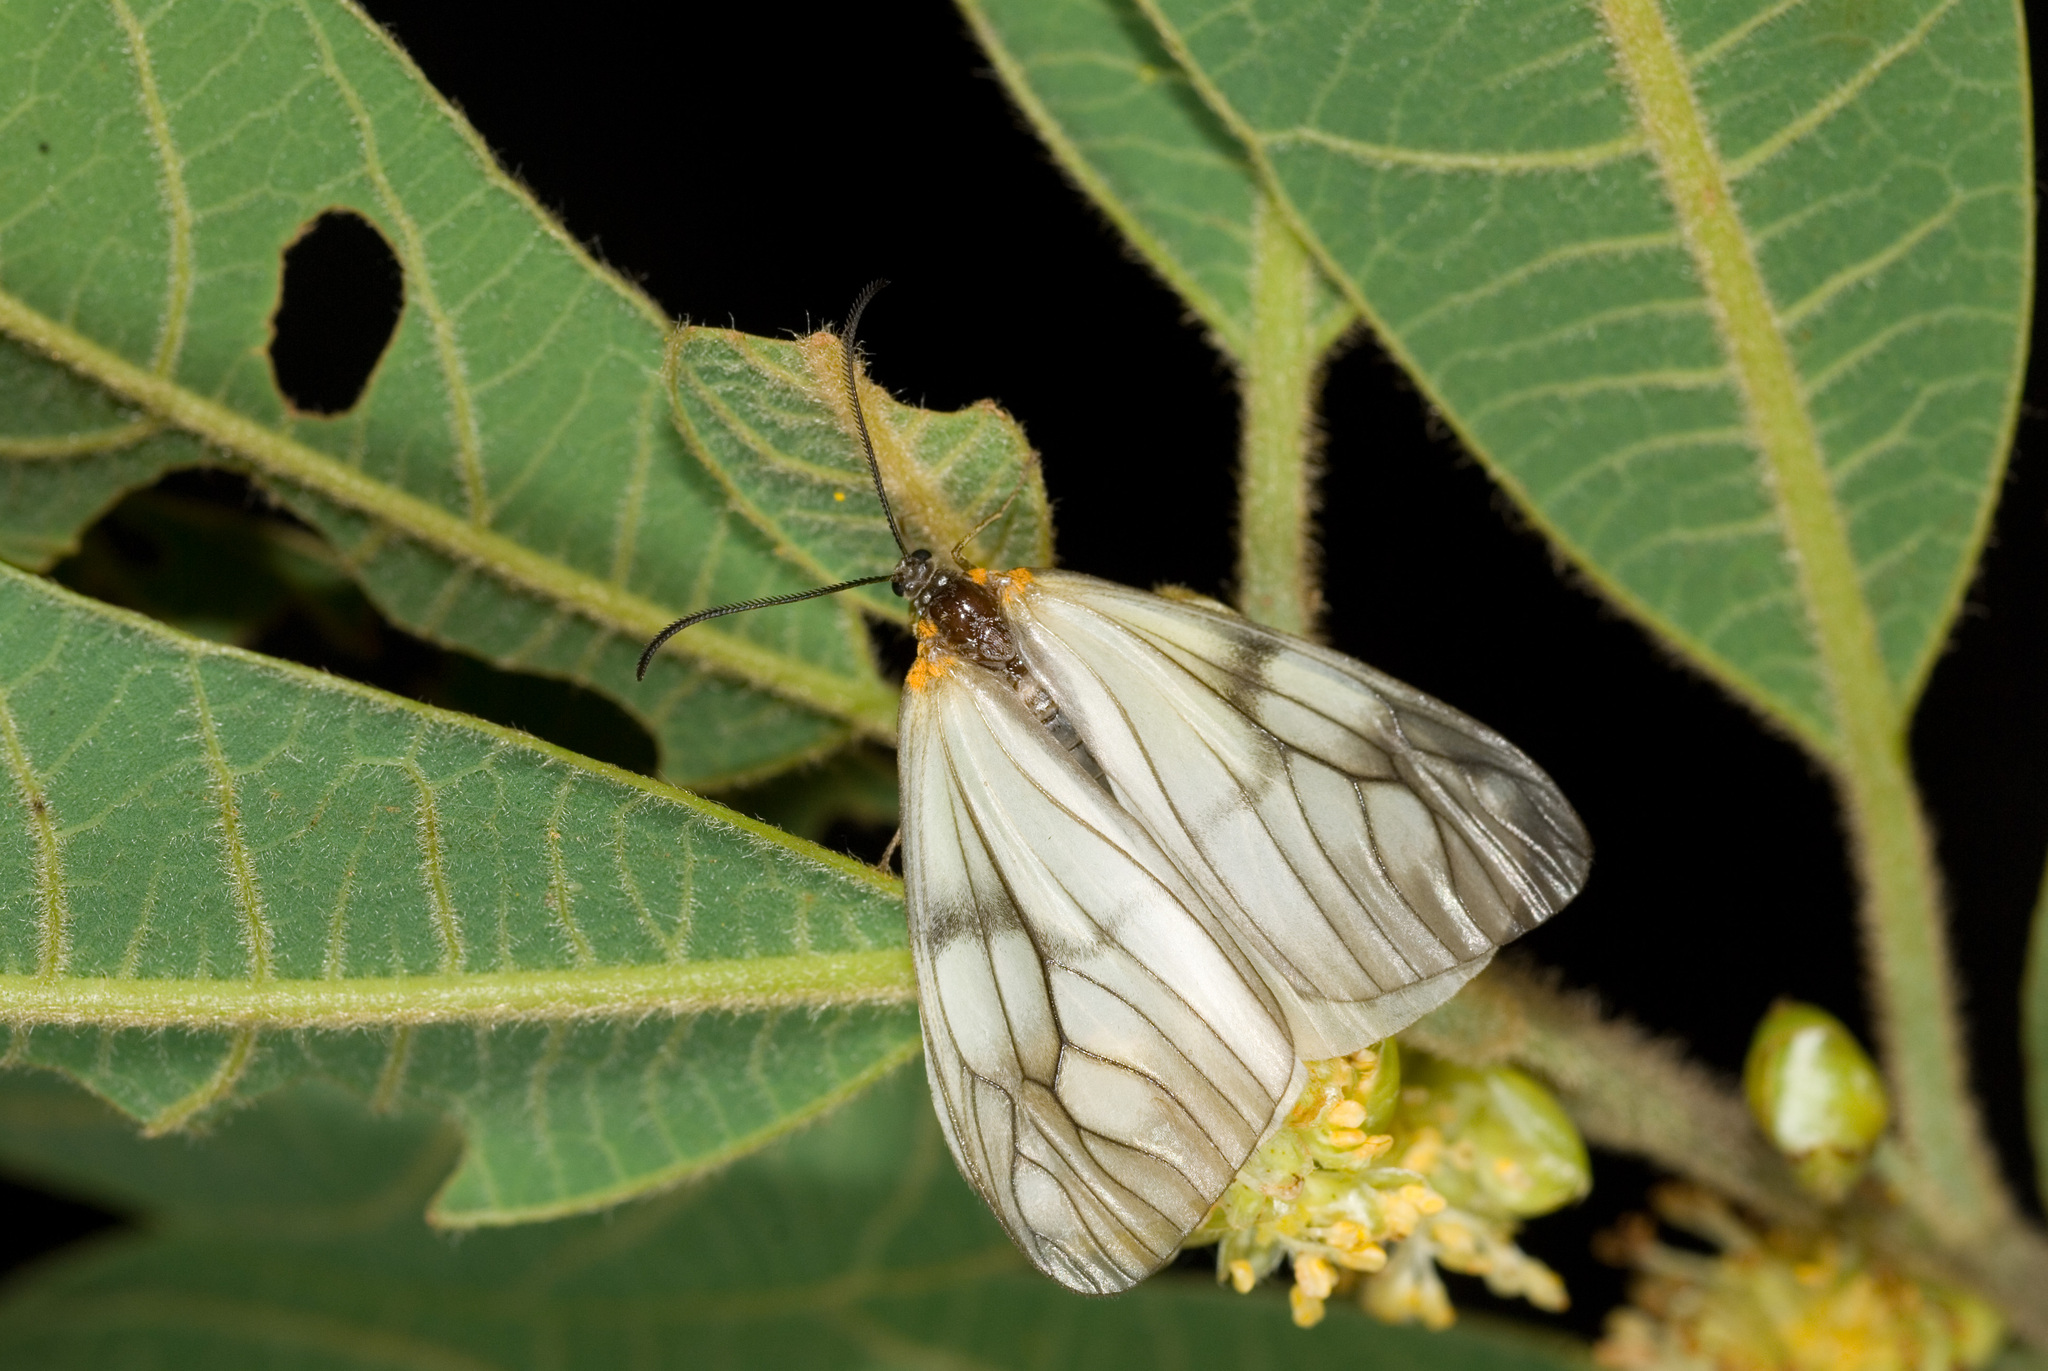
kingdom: Animalia
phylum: Arthropoda
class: Insecta
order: Lepidoptera
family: Zygaenidae
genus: Agalope
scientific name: Agalope formosana
